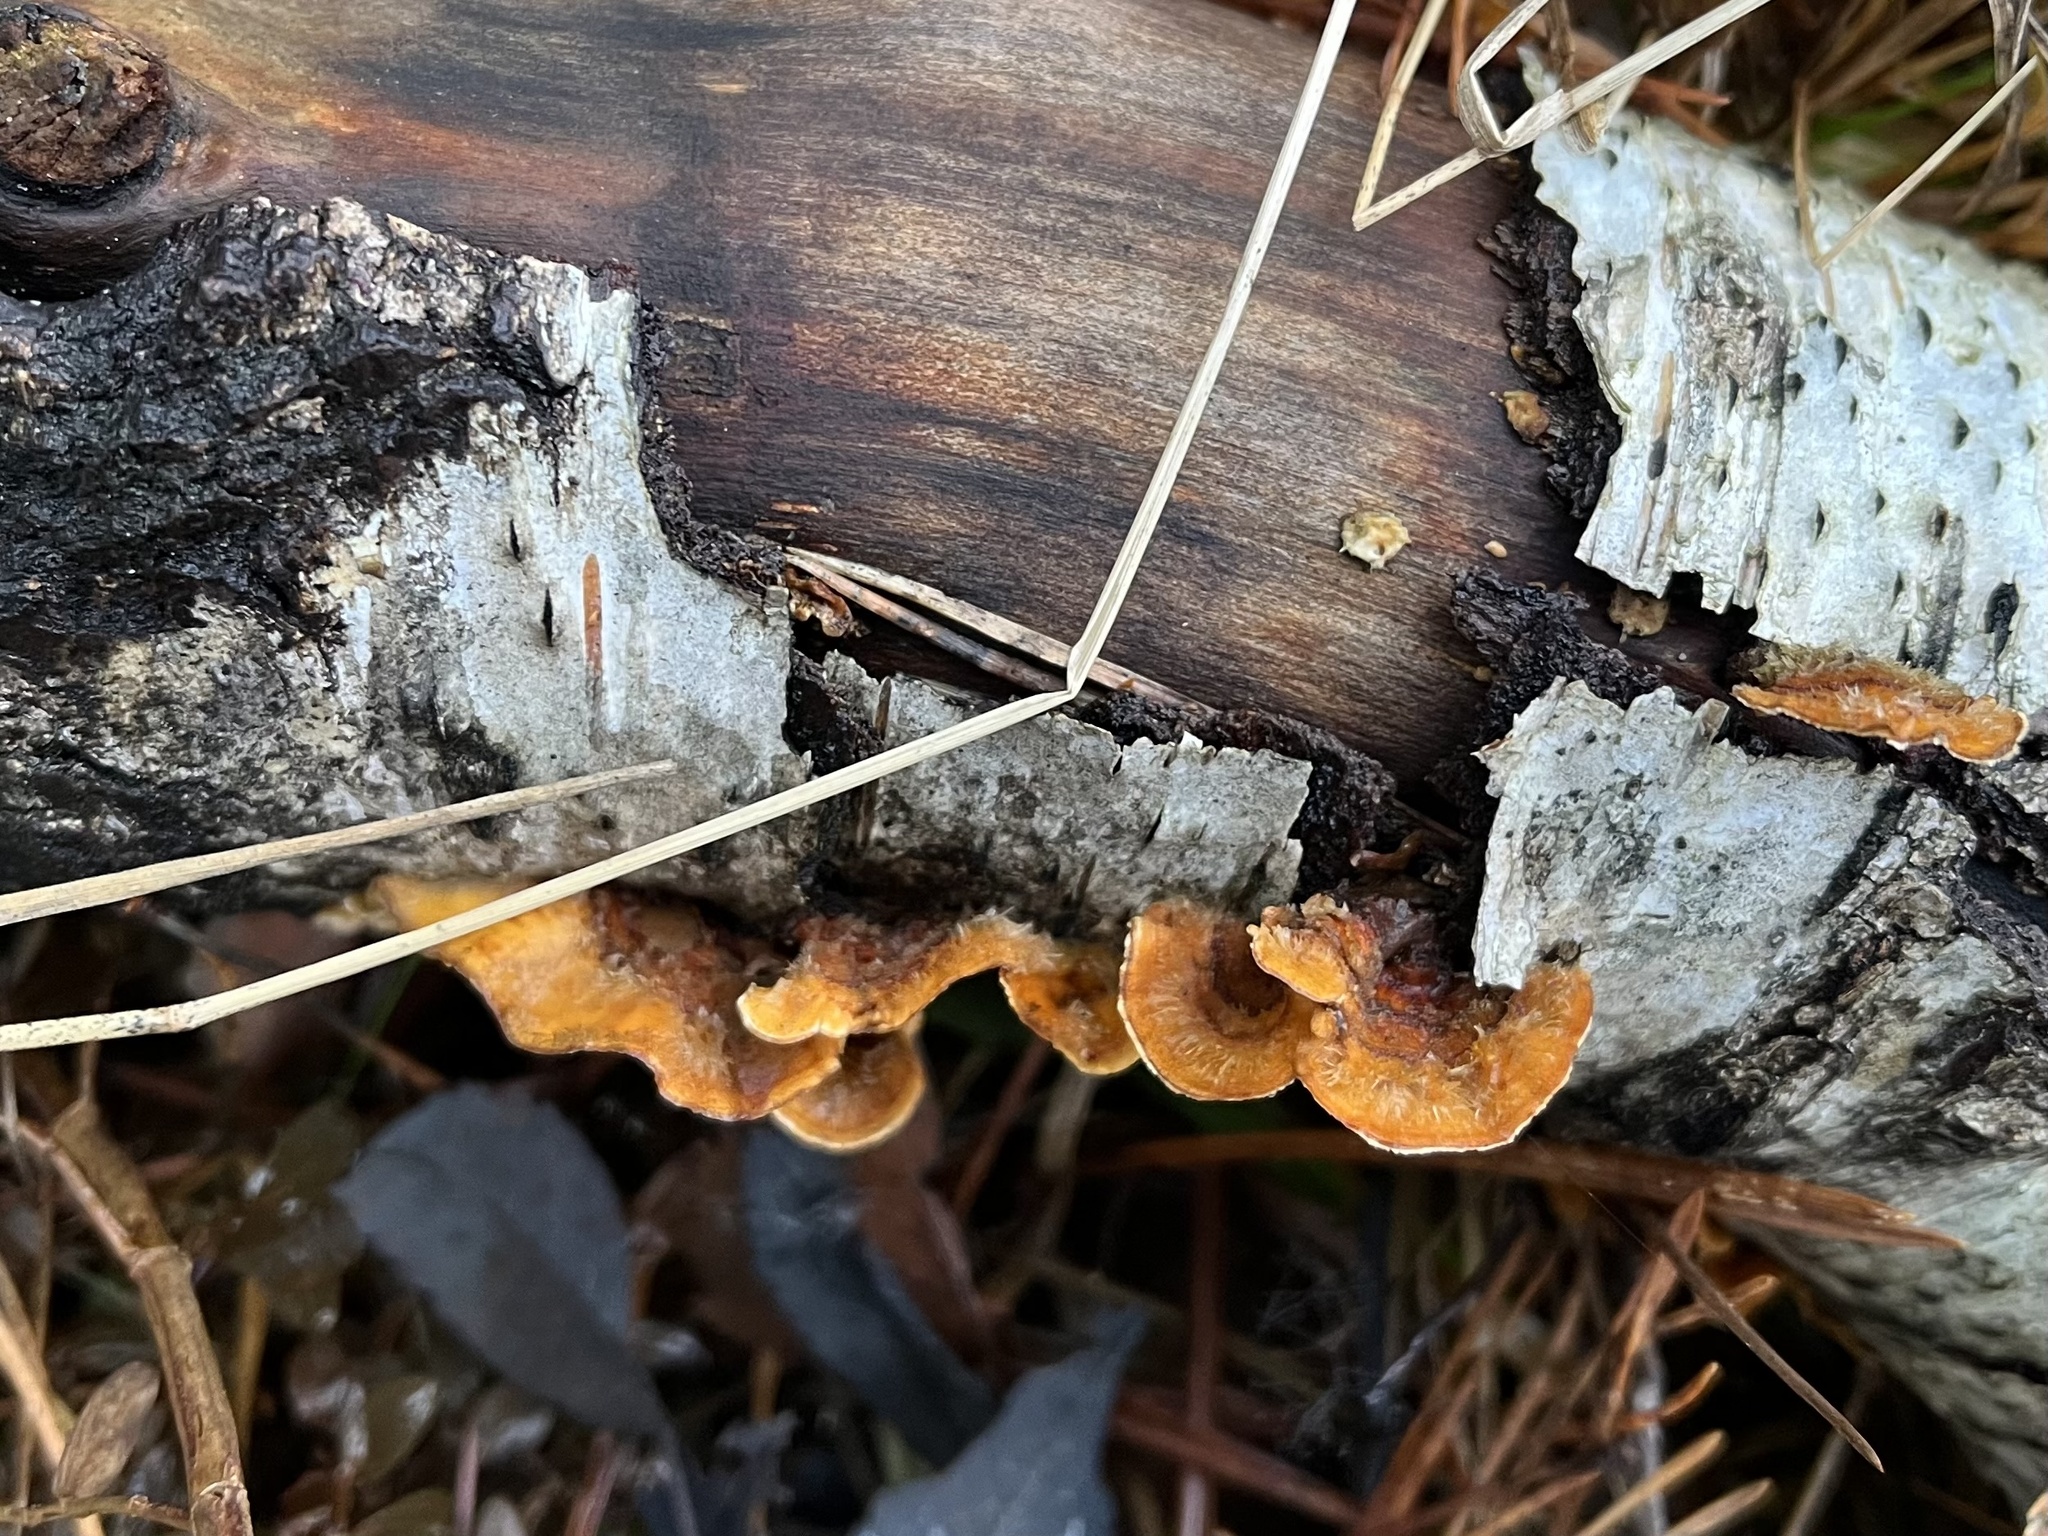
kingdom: Fungi
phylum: Basidiomycota
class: Agaricomycetes
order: Russulales
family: Stereaceae
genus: Stereum
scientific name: Stereum hirsutum
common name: Hairy curtain crust
